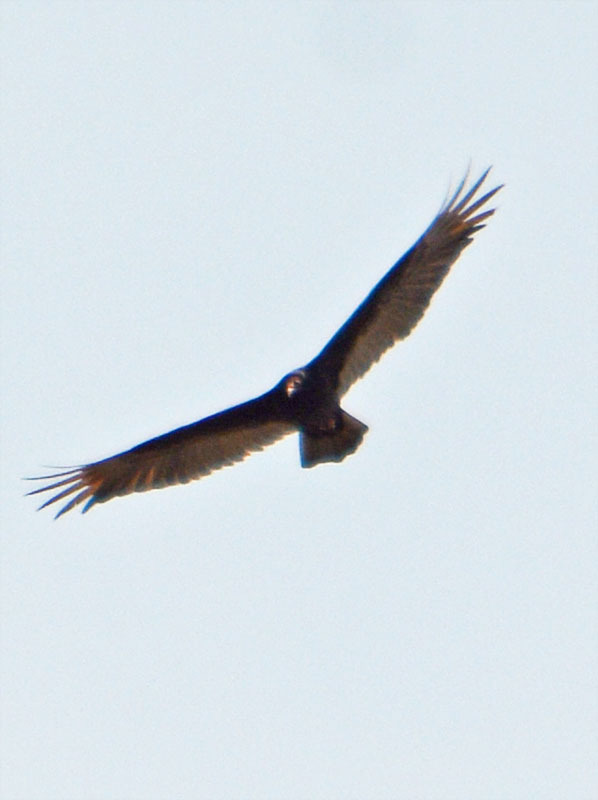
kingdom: Animalia
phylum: Chordata
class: Aves
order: Accipitriformes
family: Cathartidae
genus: Cathartes
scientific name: Cathartes aura
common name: Turkey vulture
